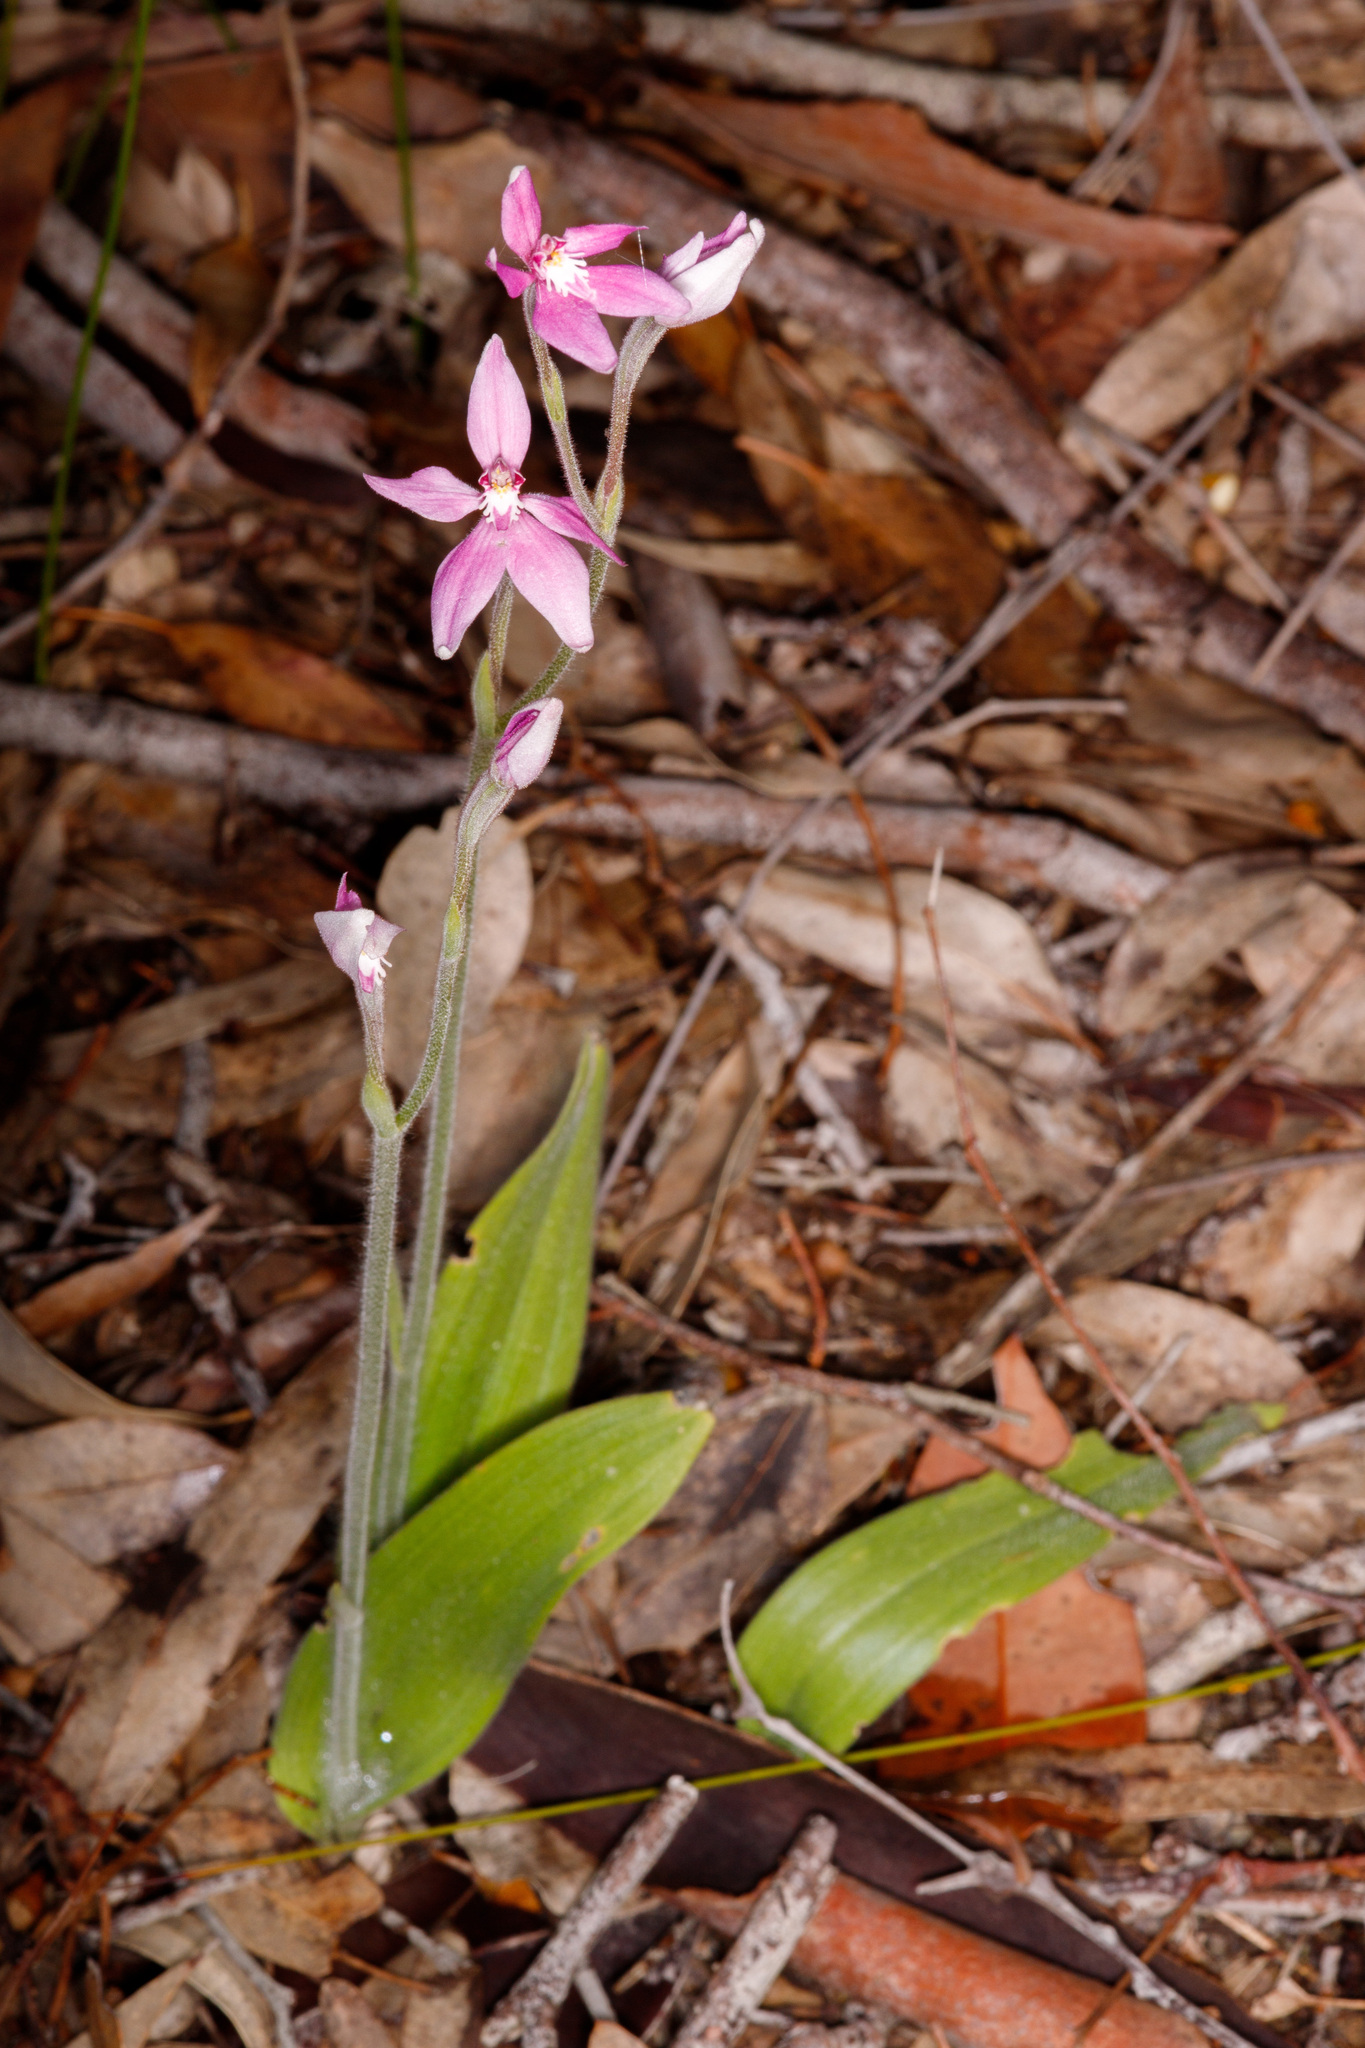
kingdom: Plantae
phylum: Tracheophyta
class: Liliopsida
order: Asparagales
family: Orchidaceae
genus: Caladenia
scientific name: Caladenia latifolia
